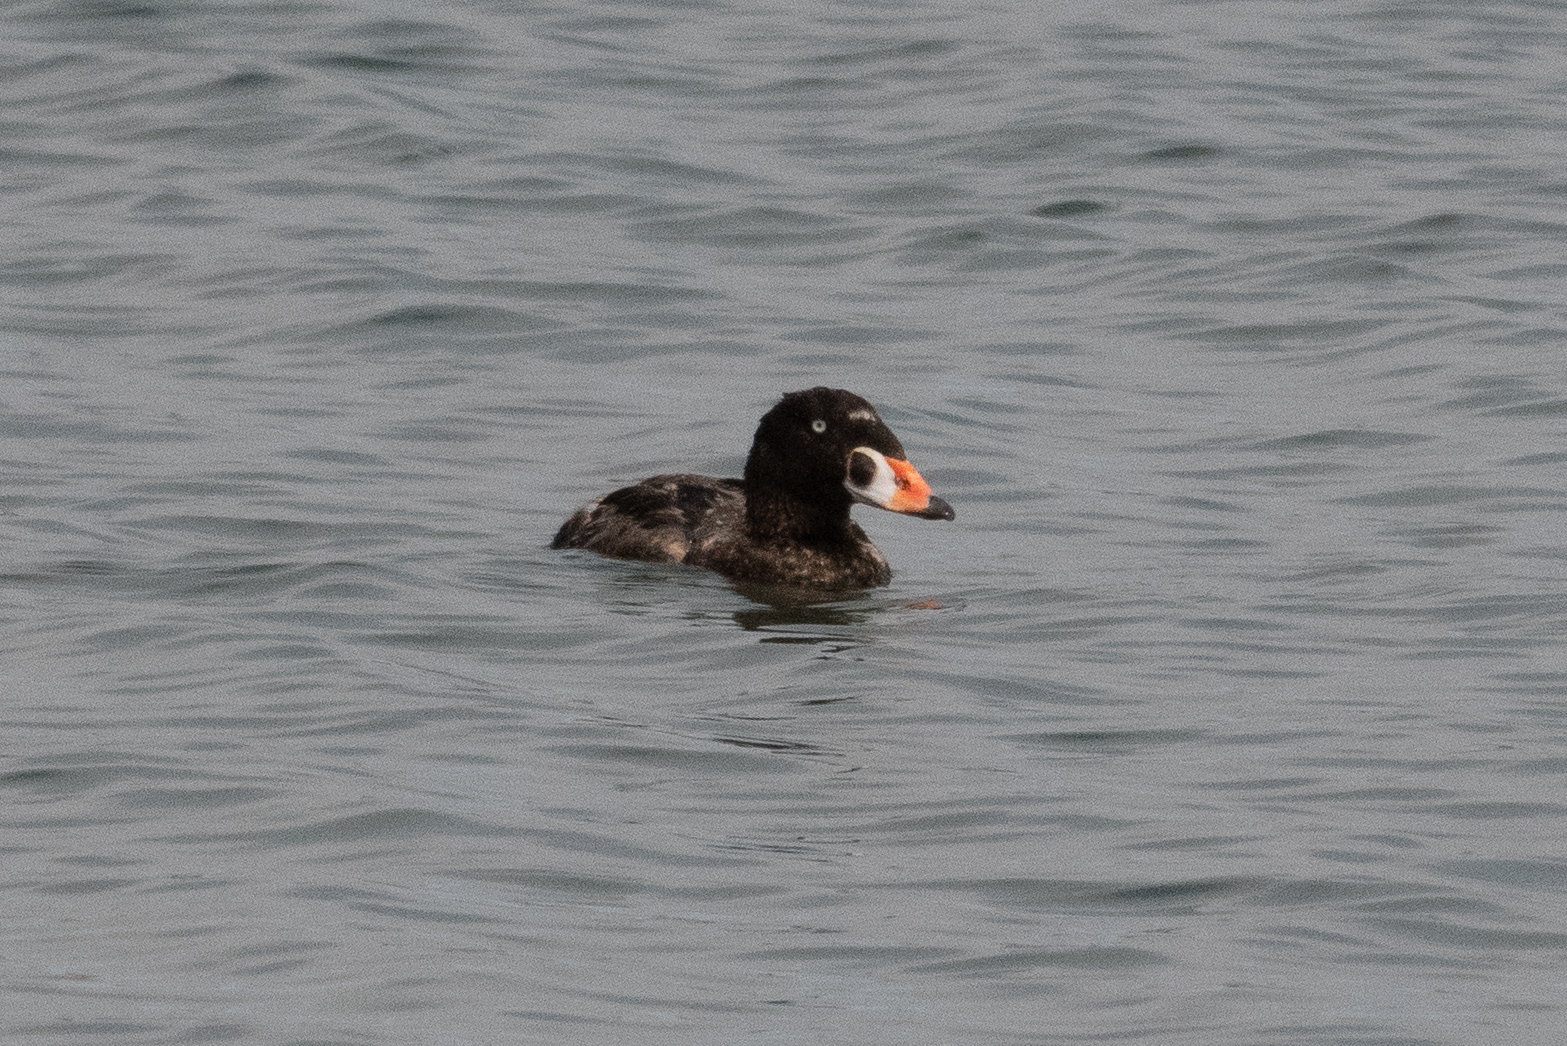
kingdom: Animalia
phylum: Chordata
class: Aves
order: Anseriformes
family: Anatidae
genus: Melanitta
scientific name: Melanitta perspicillata
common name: Surf scoter
